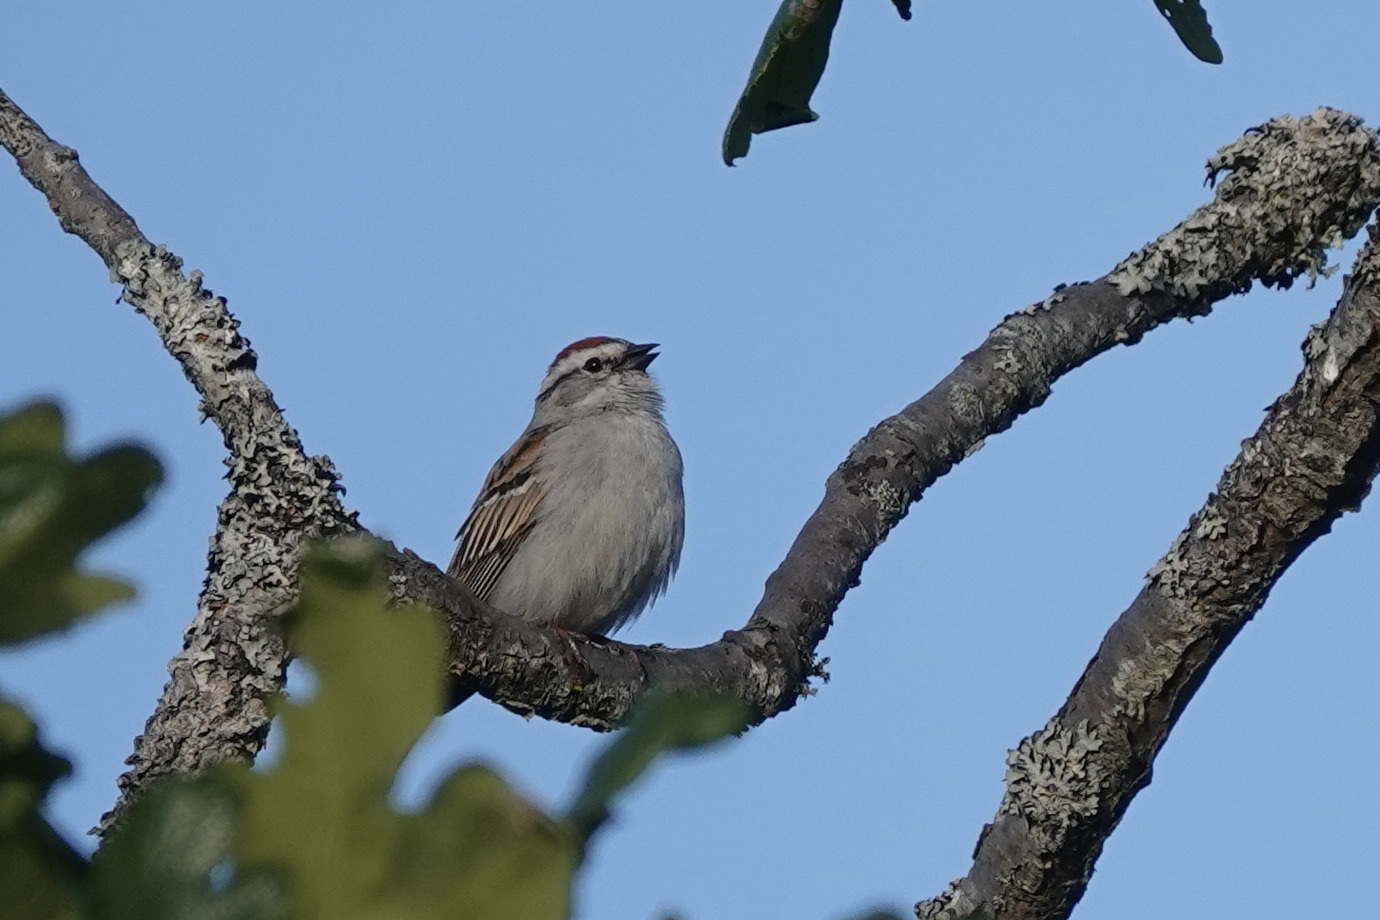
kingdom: Animalia
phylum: Chordata
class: Aves
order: Passeriformes
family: Passerellidae
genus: Spizella
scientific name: Spizella passerina
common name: Chipping sparrow
